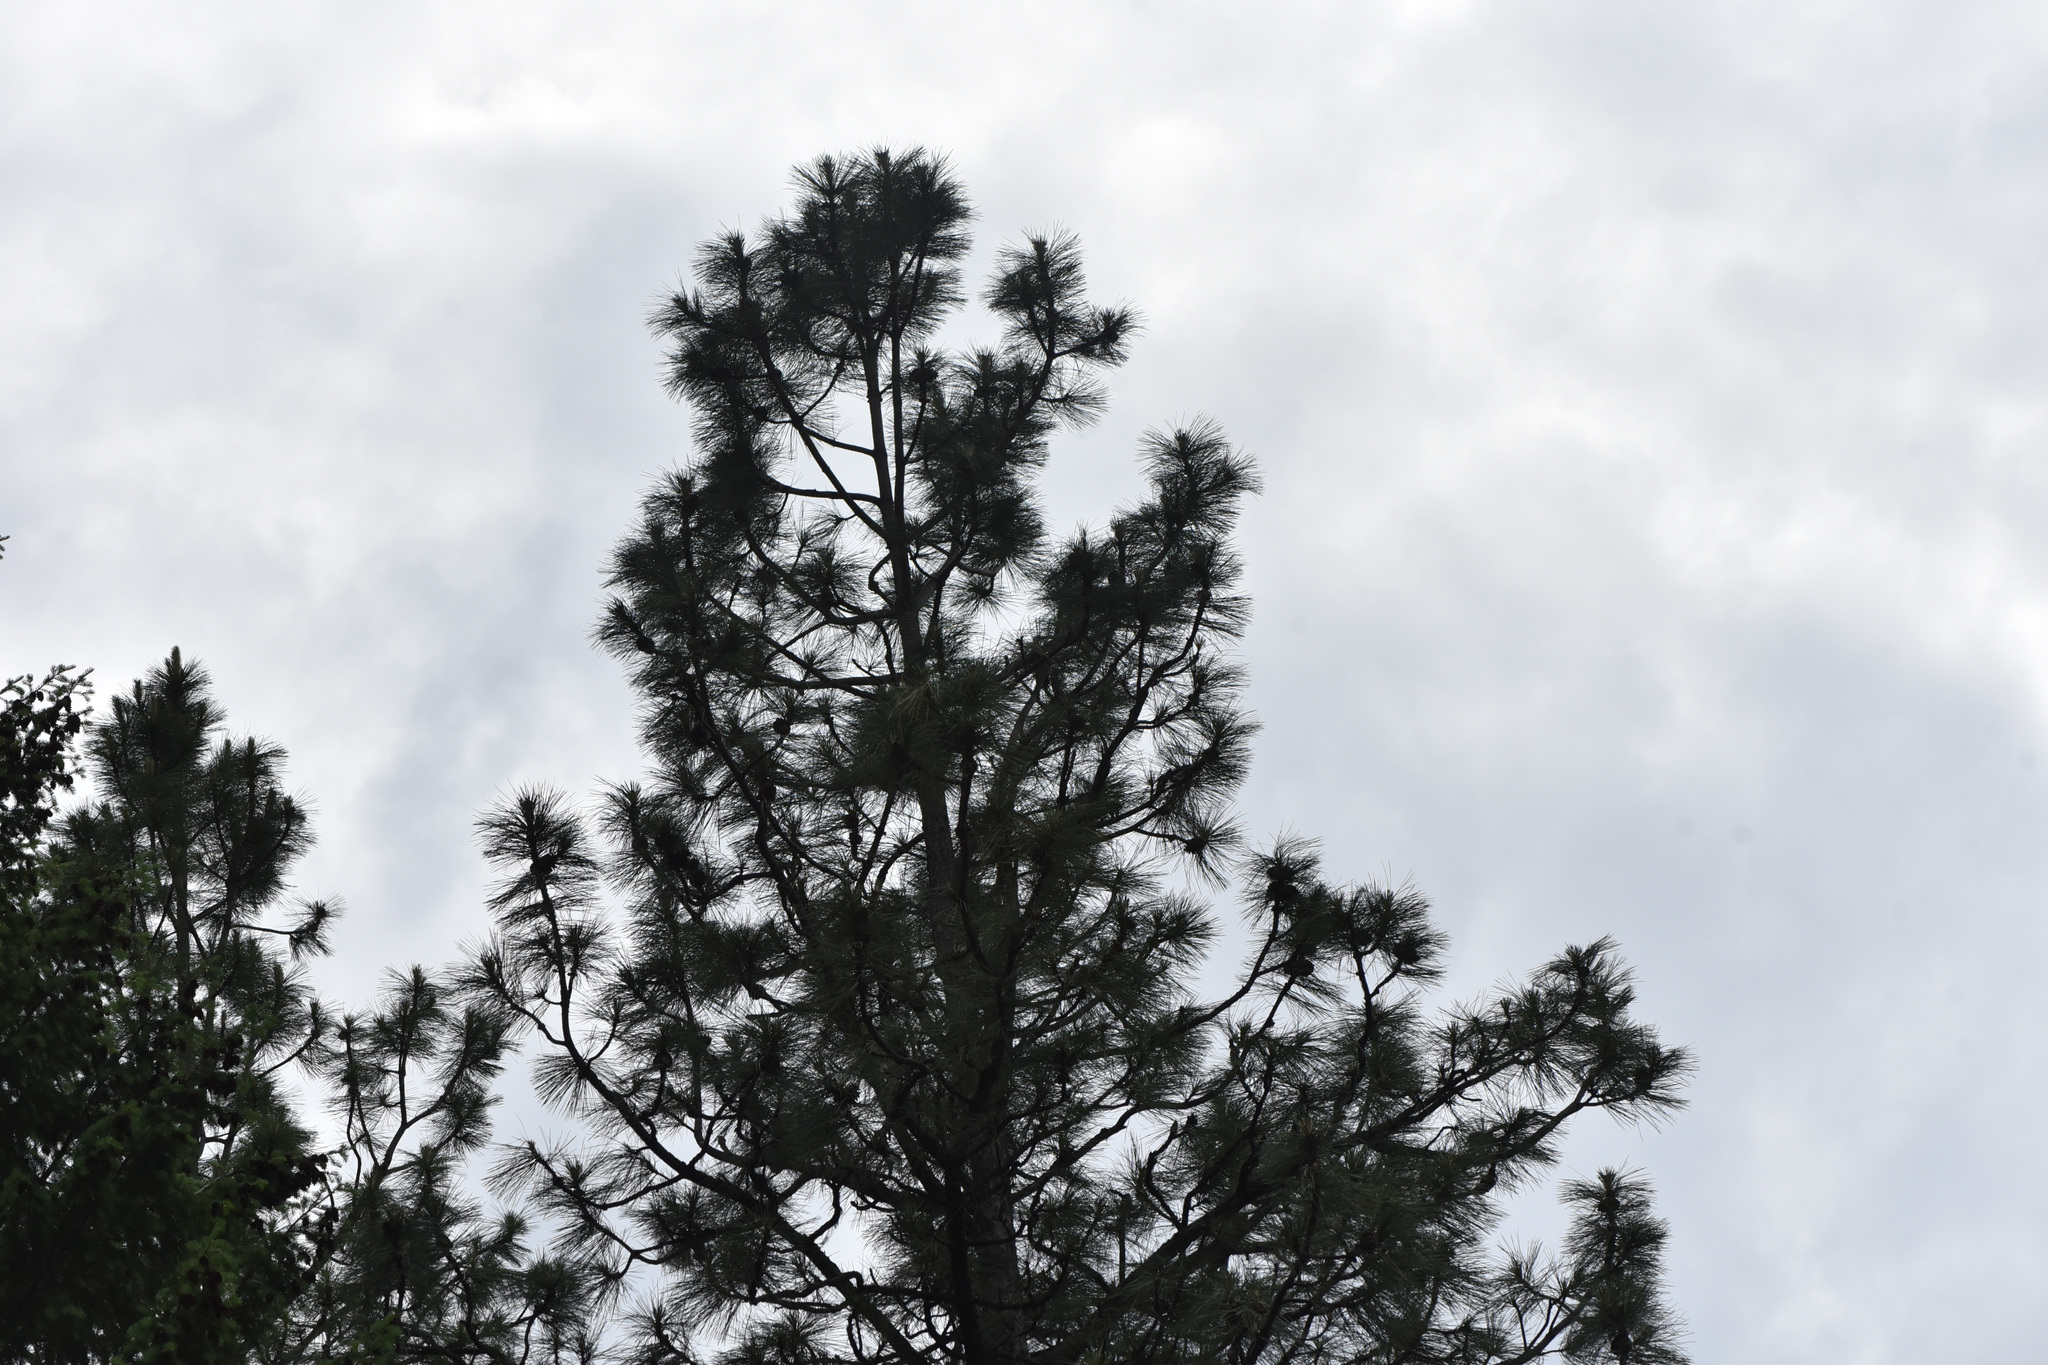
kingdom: Plantae
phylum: Tracheophyta
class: Pinopsida
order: Pinales
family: Pinaceae
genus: Pinus
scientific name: Pinus ponderosa
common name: Western yellow-pine
